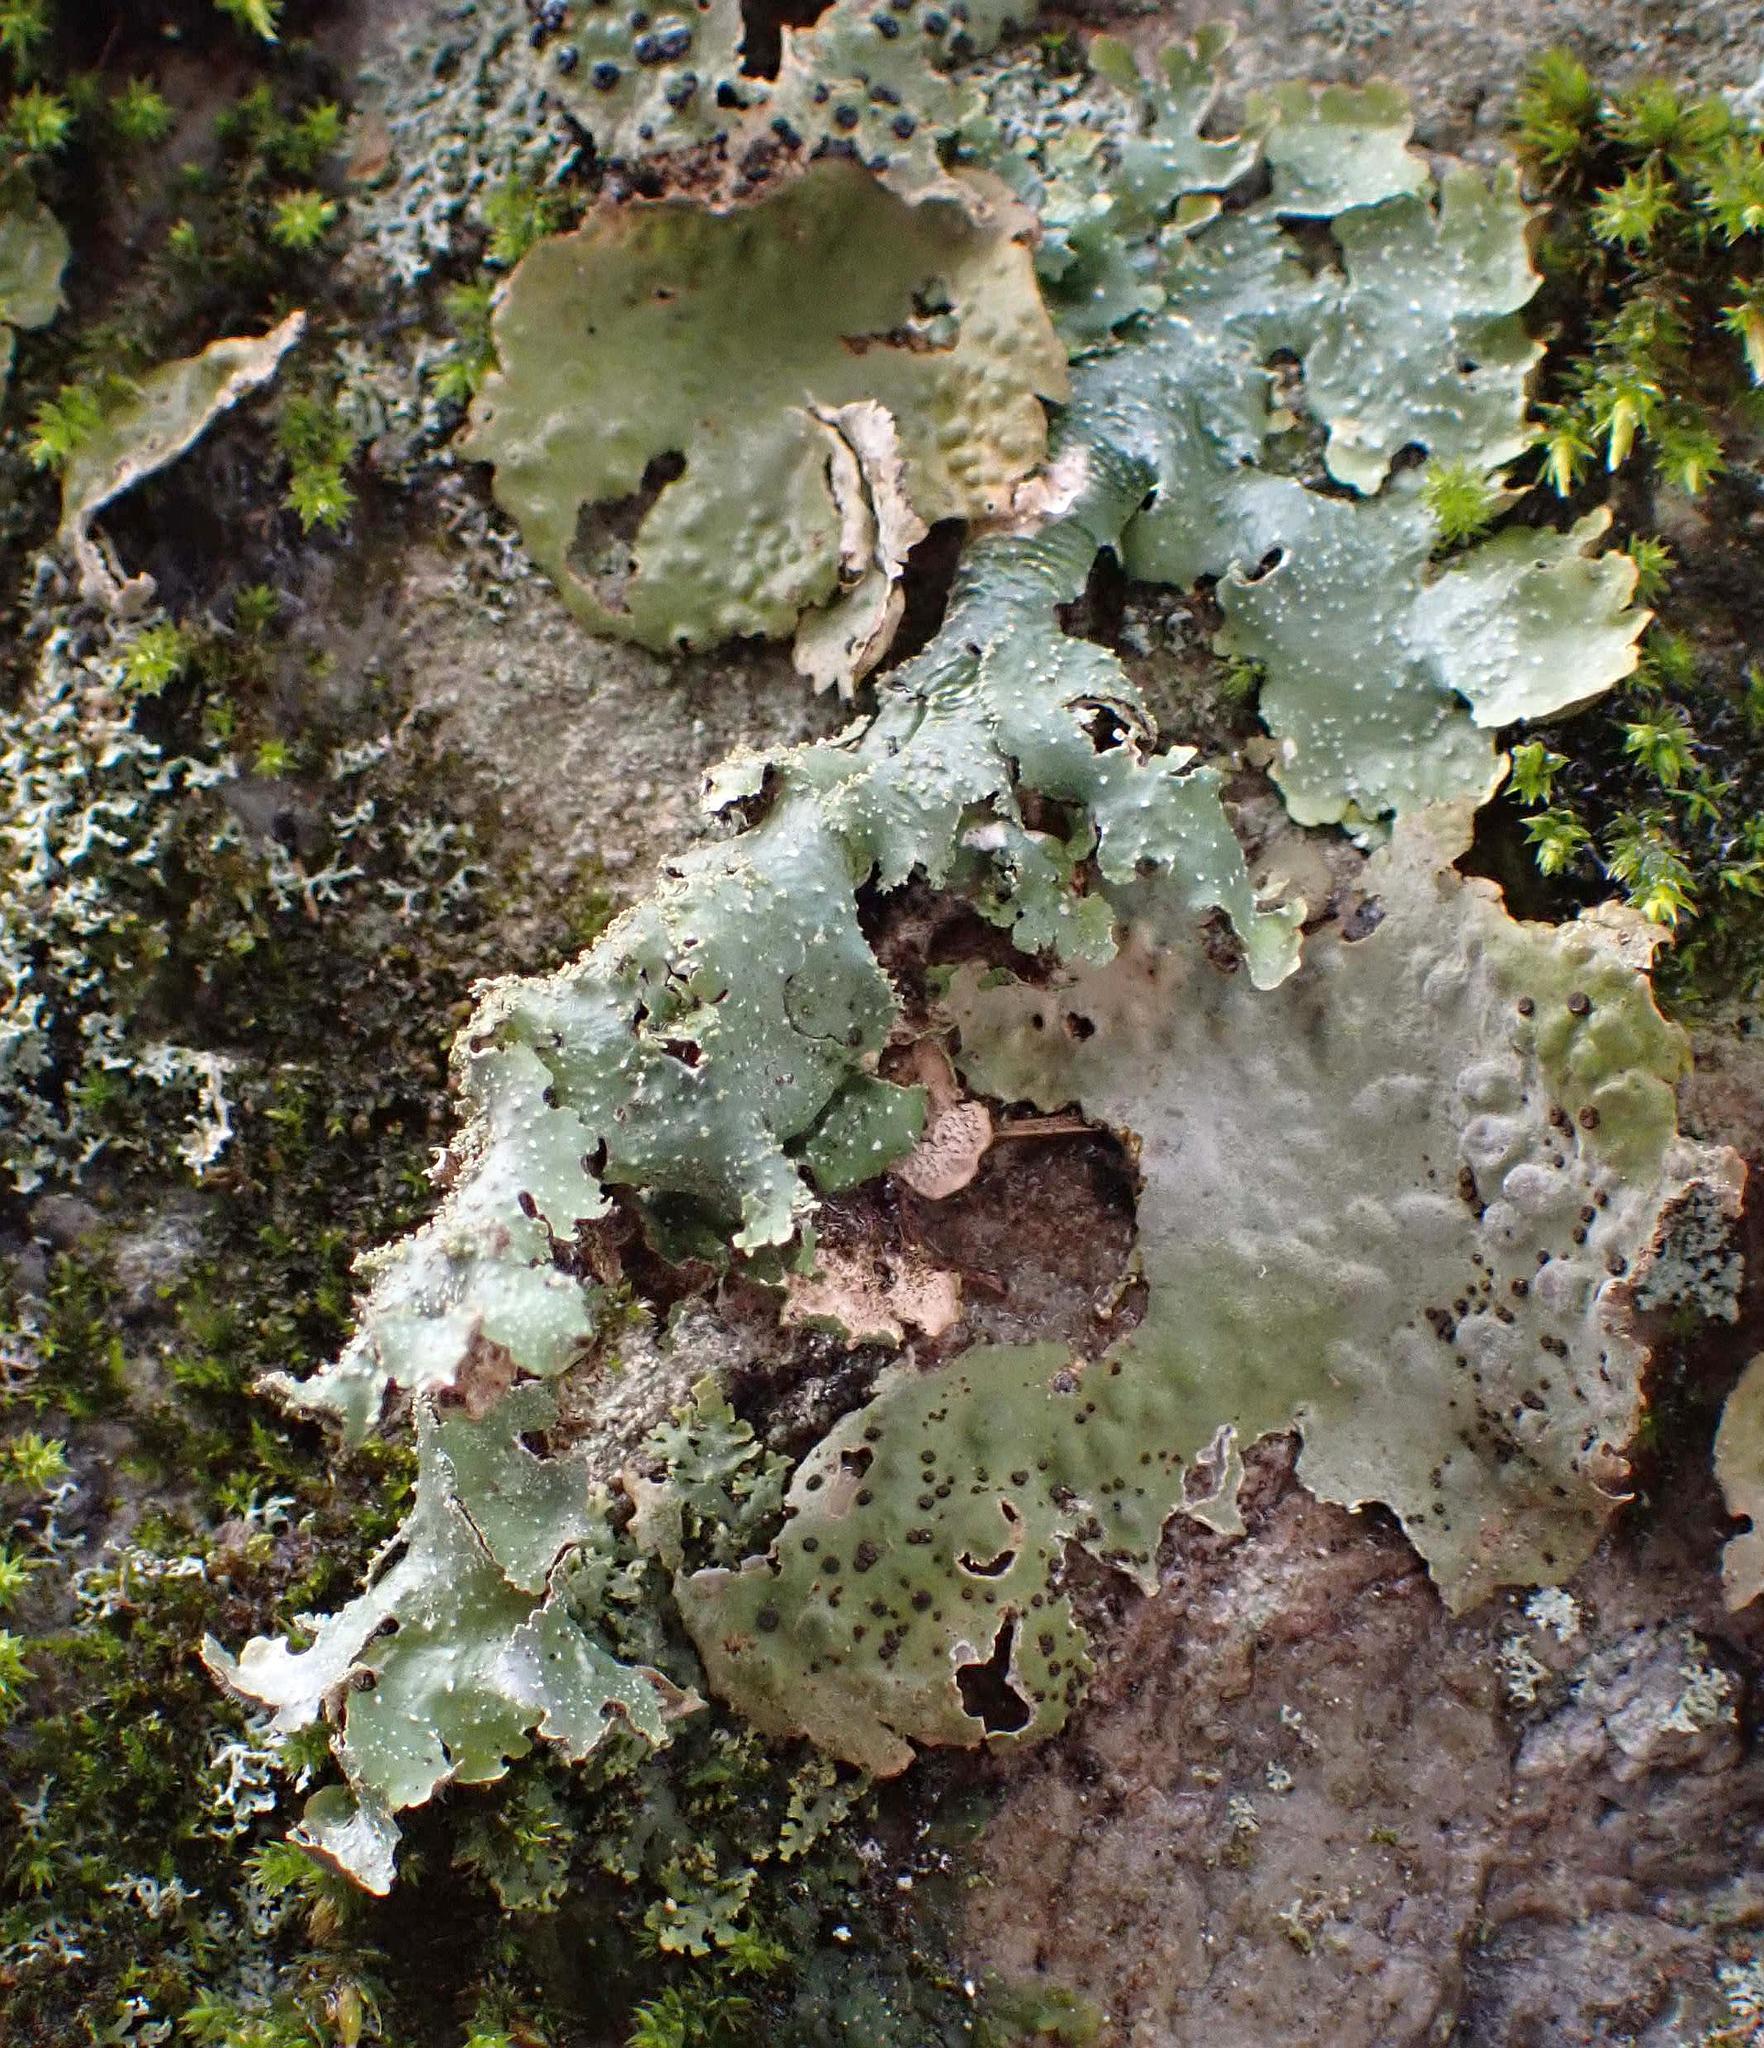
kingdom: Fungi
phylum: Ascomycota
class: Lecanoromycetes
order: Lecanorales
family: Parmeliaceae
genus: Punctelia
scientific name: Punctelia rudecta
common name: Rough speckled shield lichen
